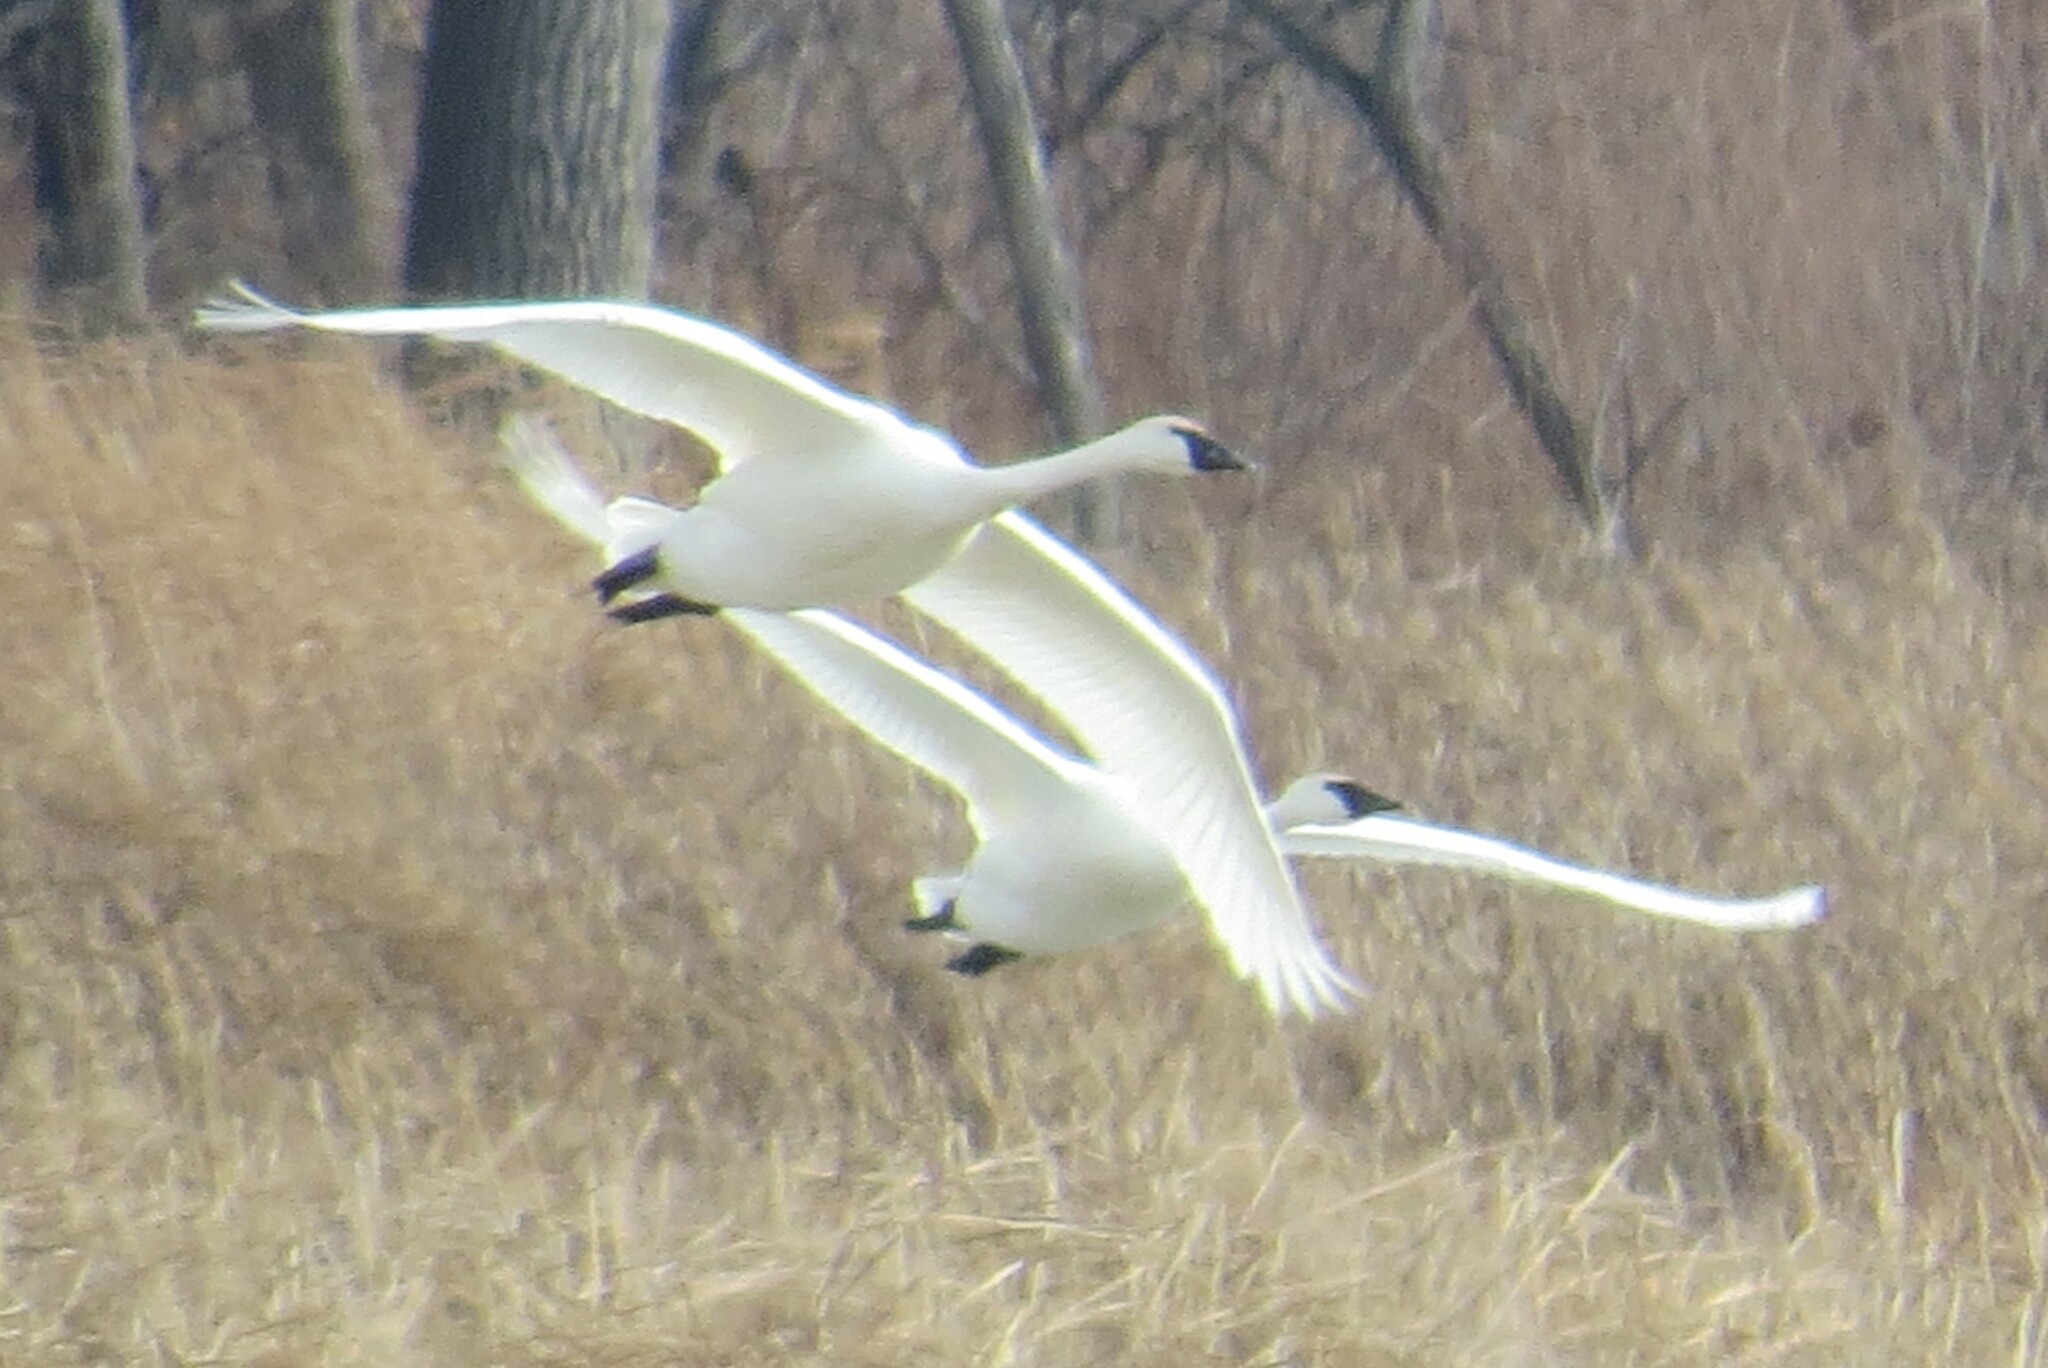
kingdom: Animalia
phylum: Chordata
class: Aves
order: Anseriformes
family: Anatidae
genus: Cygnus
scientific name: Cygnus buccinator
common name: Trumpeter swan
